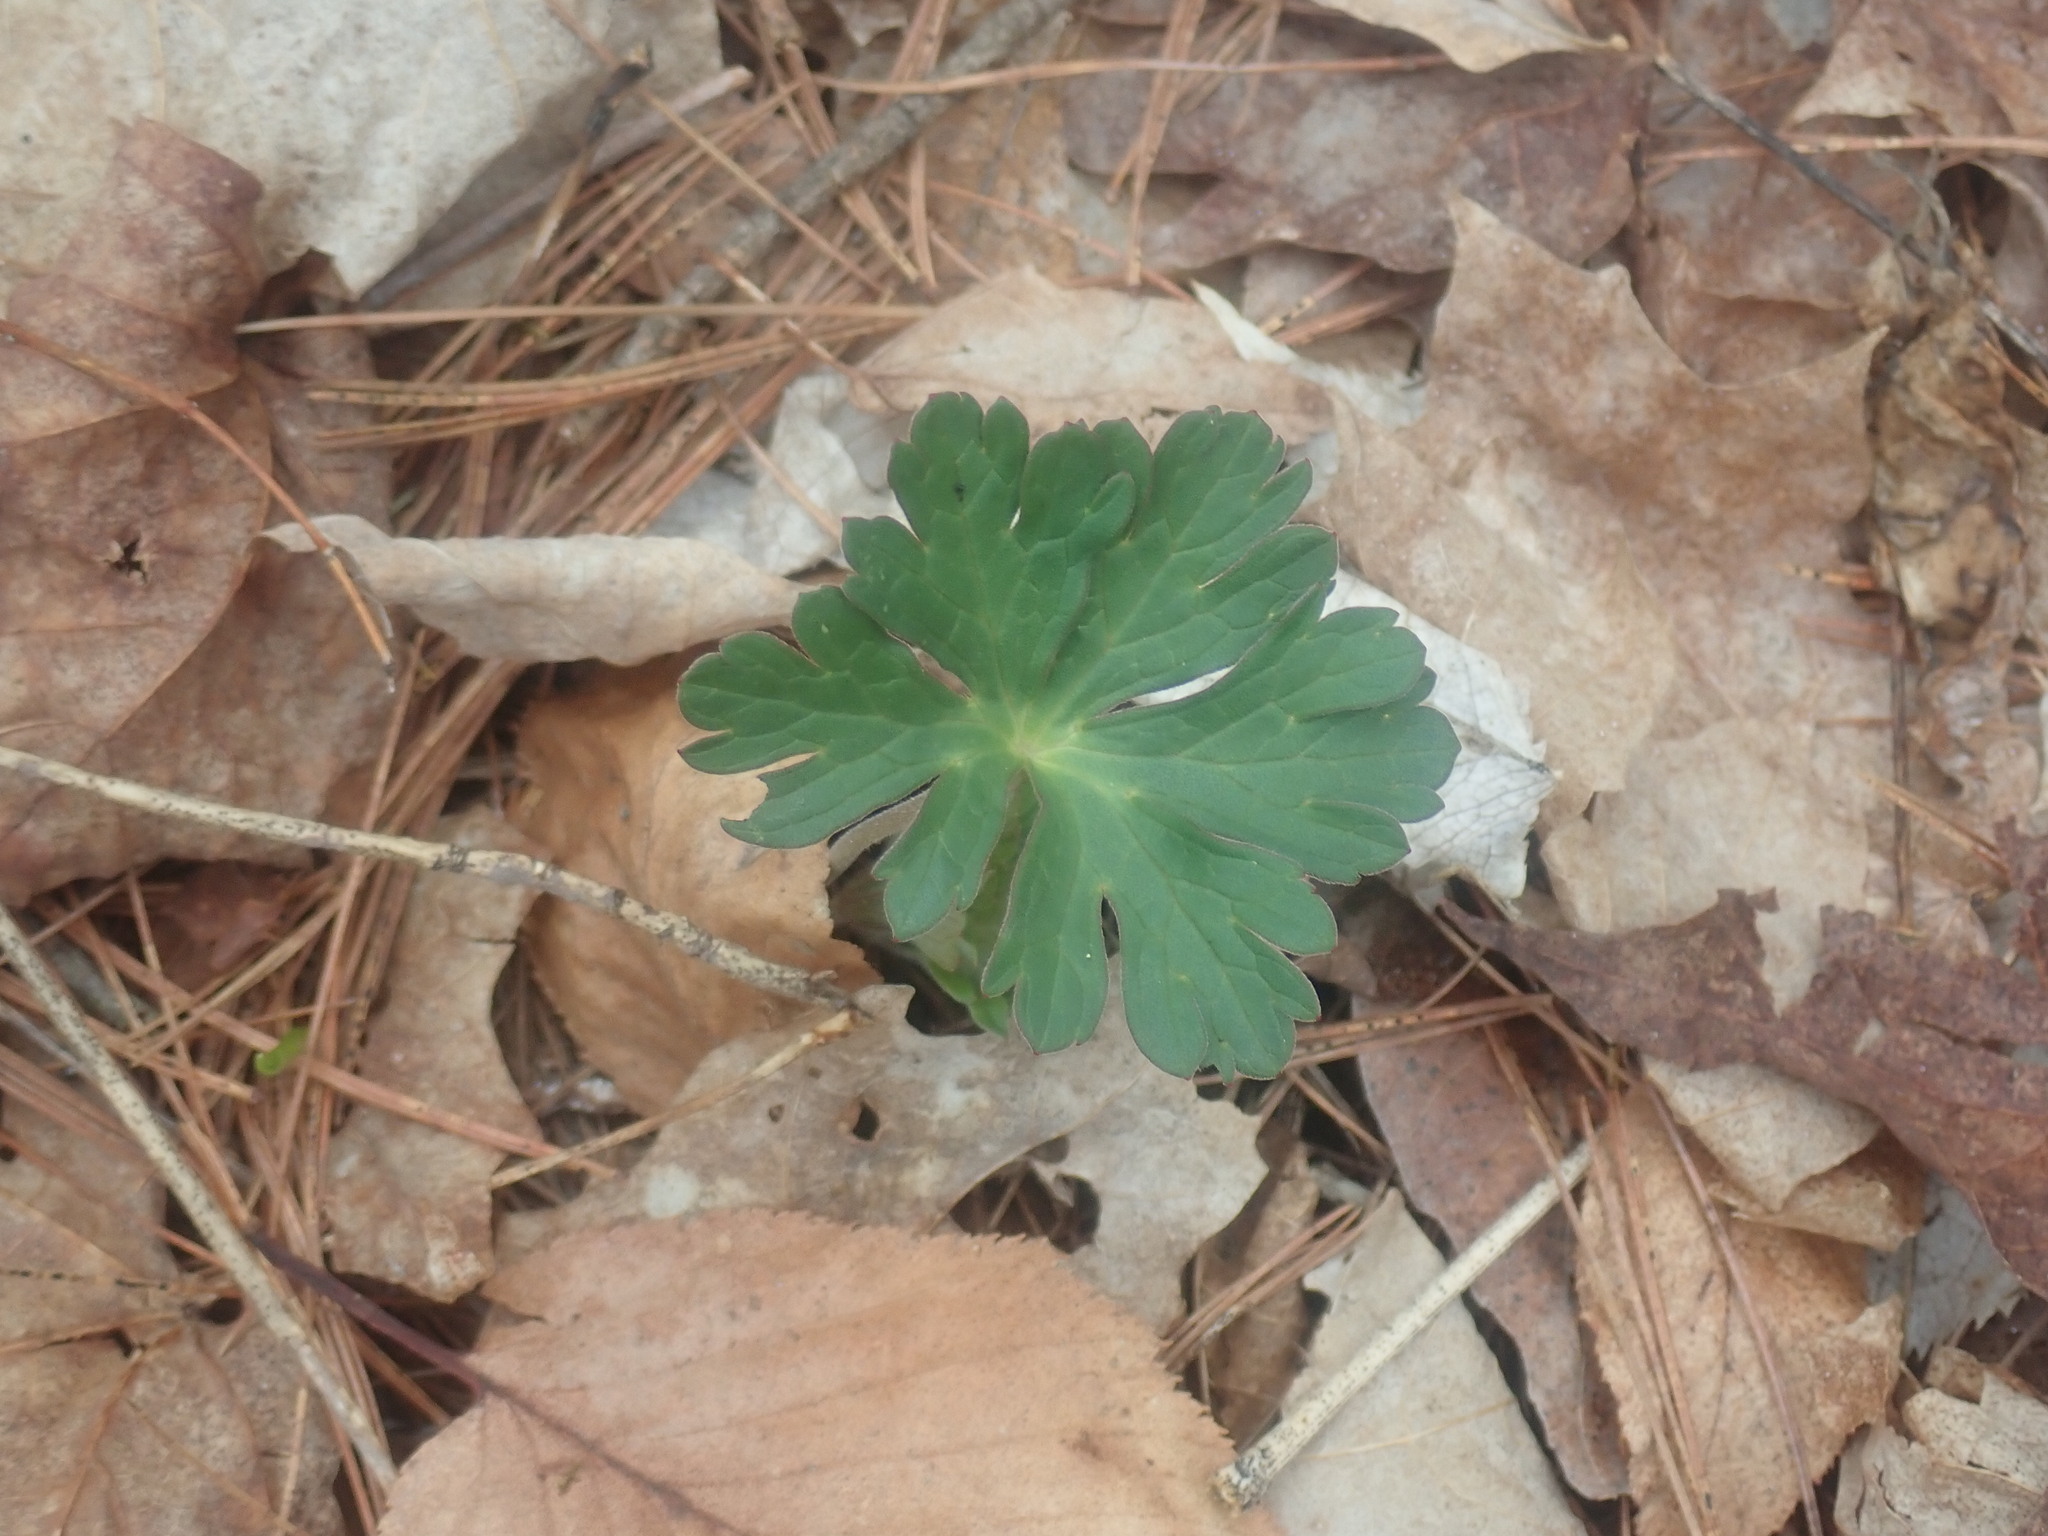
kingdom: Plantae
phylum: Tracheophyta
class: Magnoliopsida
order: Geraniales
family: Geraniaceae
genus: Geranium
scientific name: Geranium maculatum
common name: Spotted geranium
